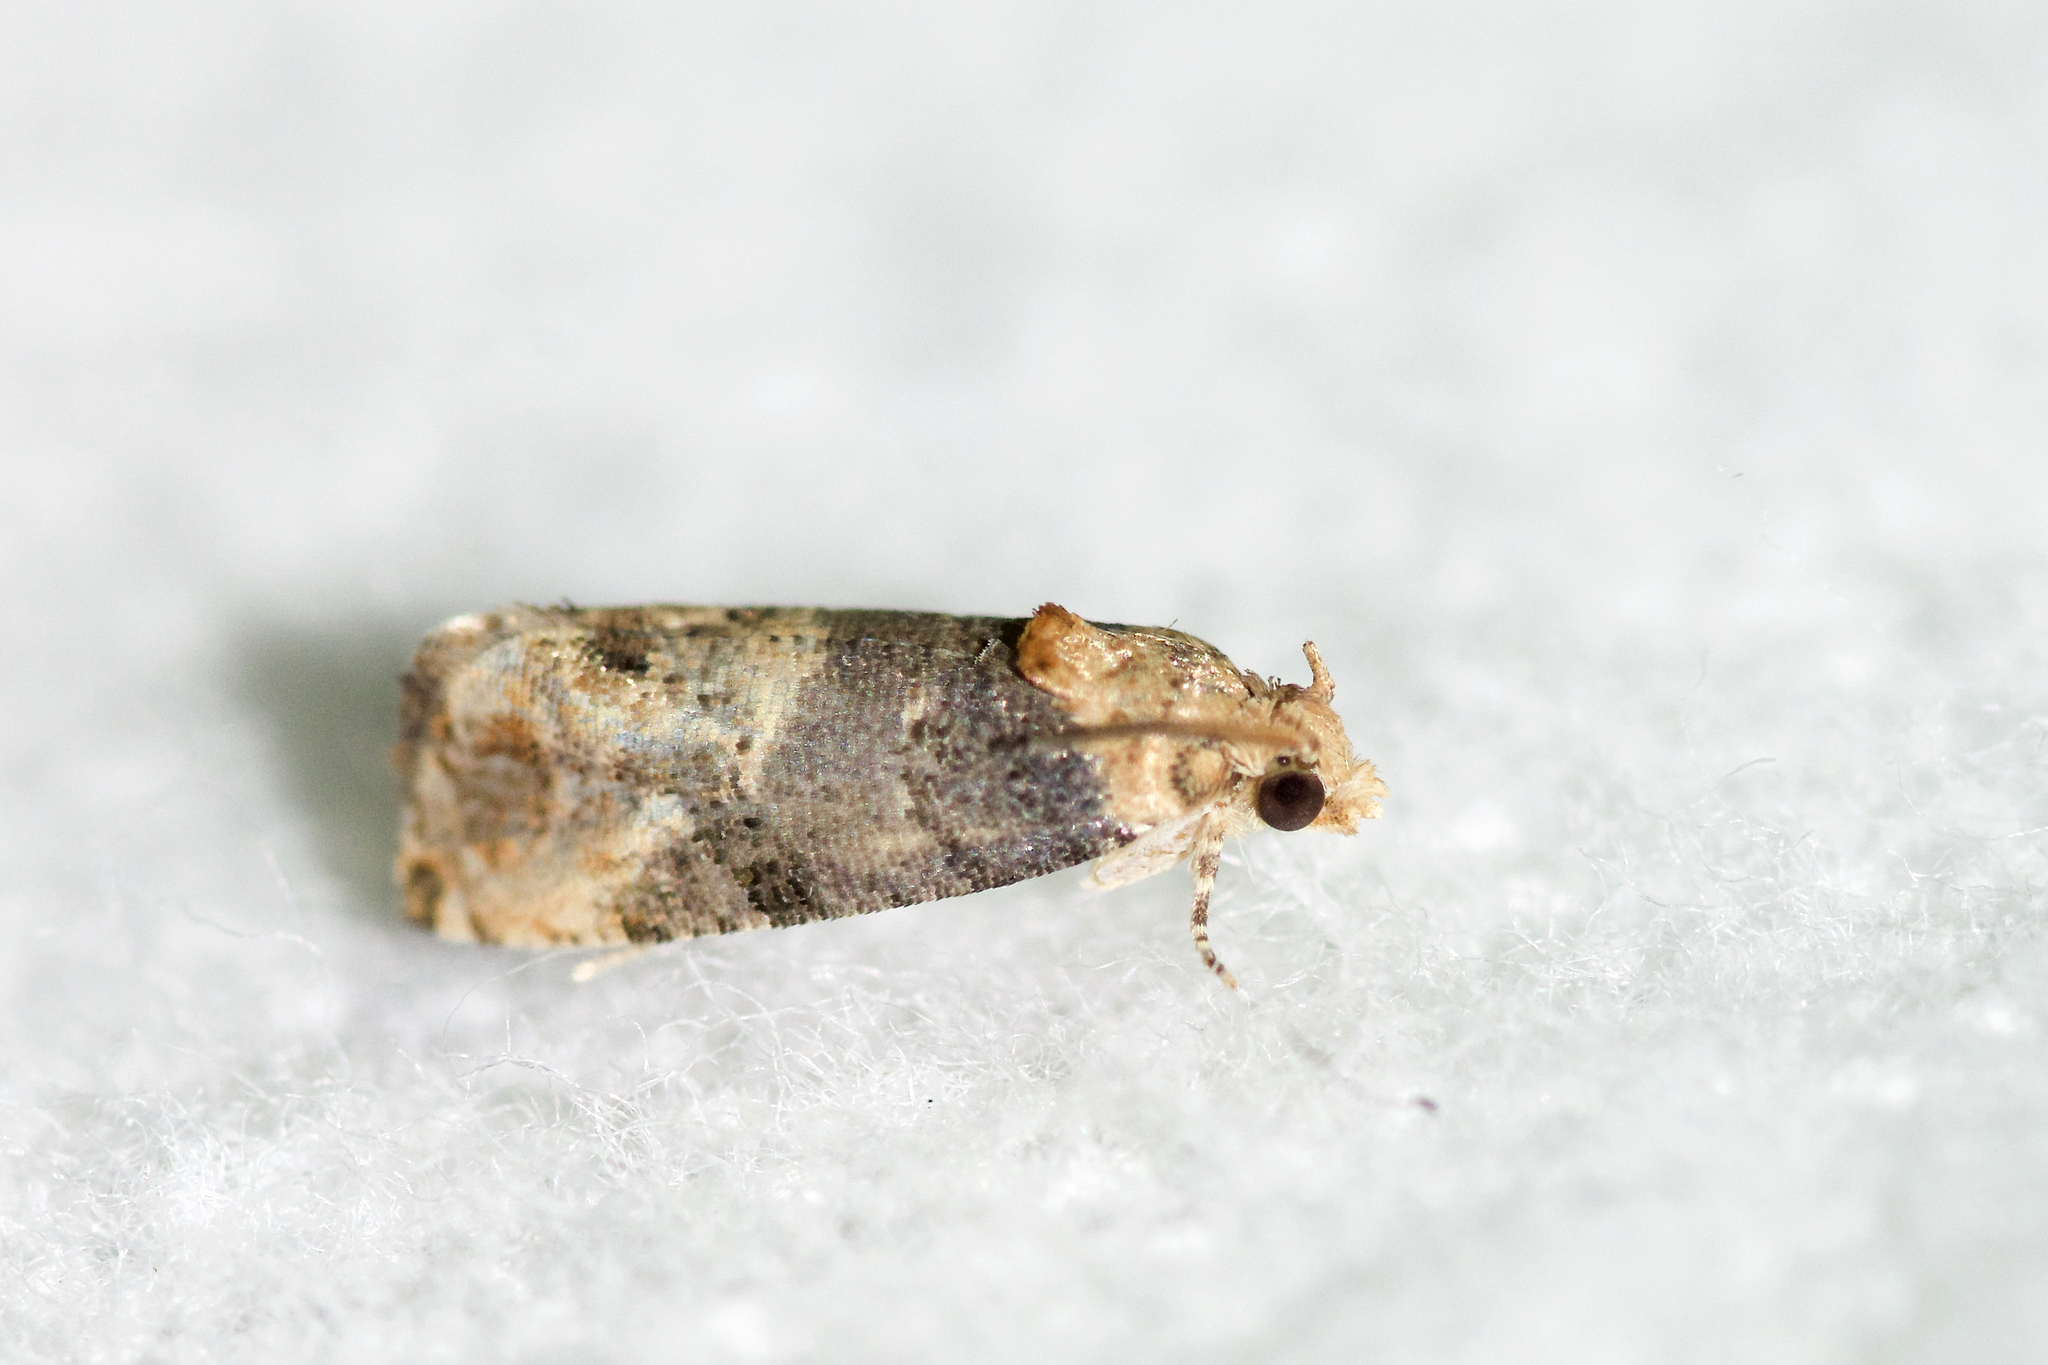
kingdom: Animalia
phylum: Arthropoda
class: Insecta
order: Lepidoptera
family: Tortricidae
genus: Paralobesia
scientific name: Paralobesia viteana
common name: Grape berry moth
